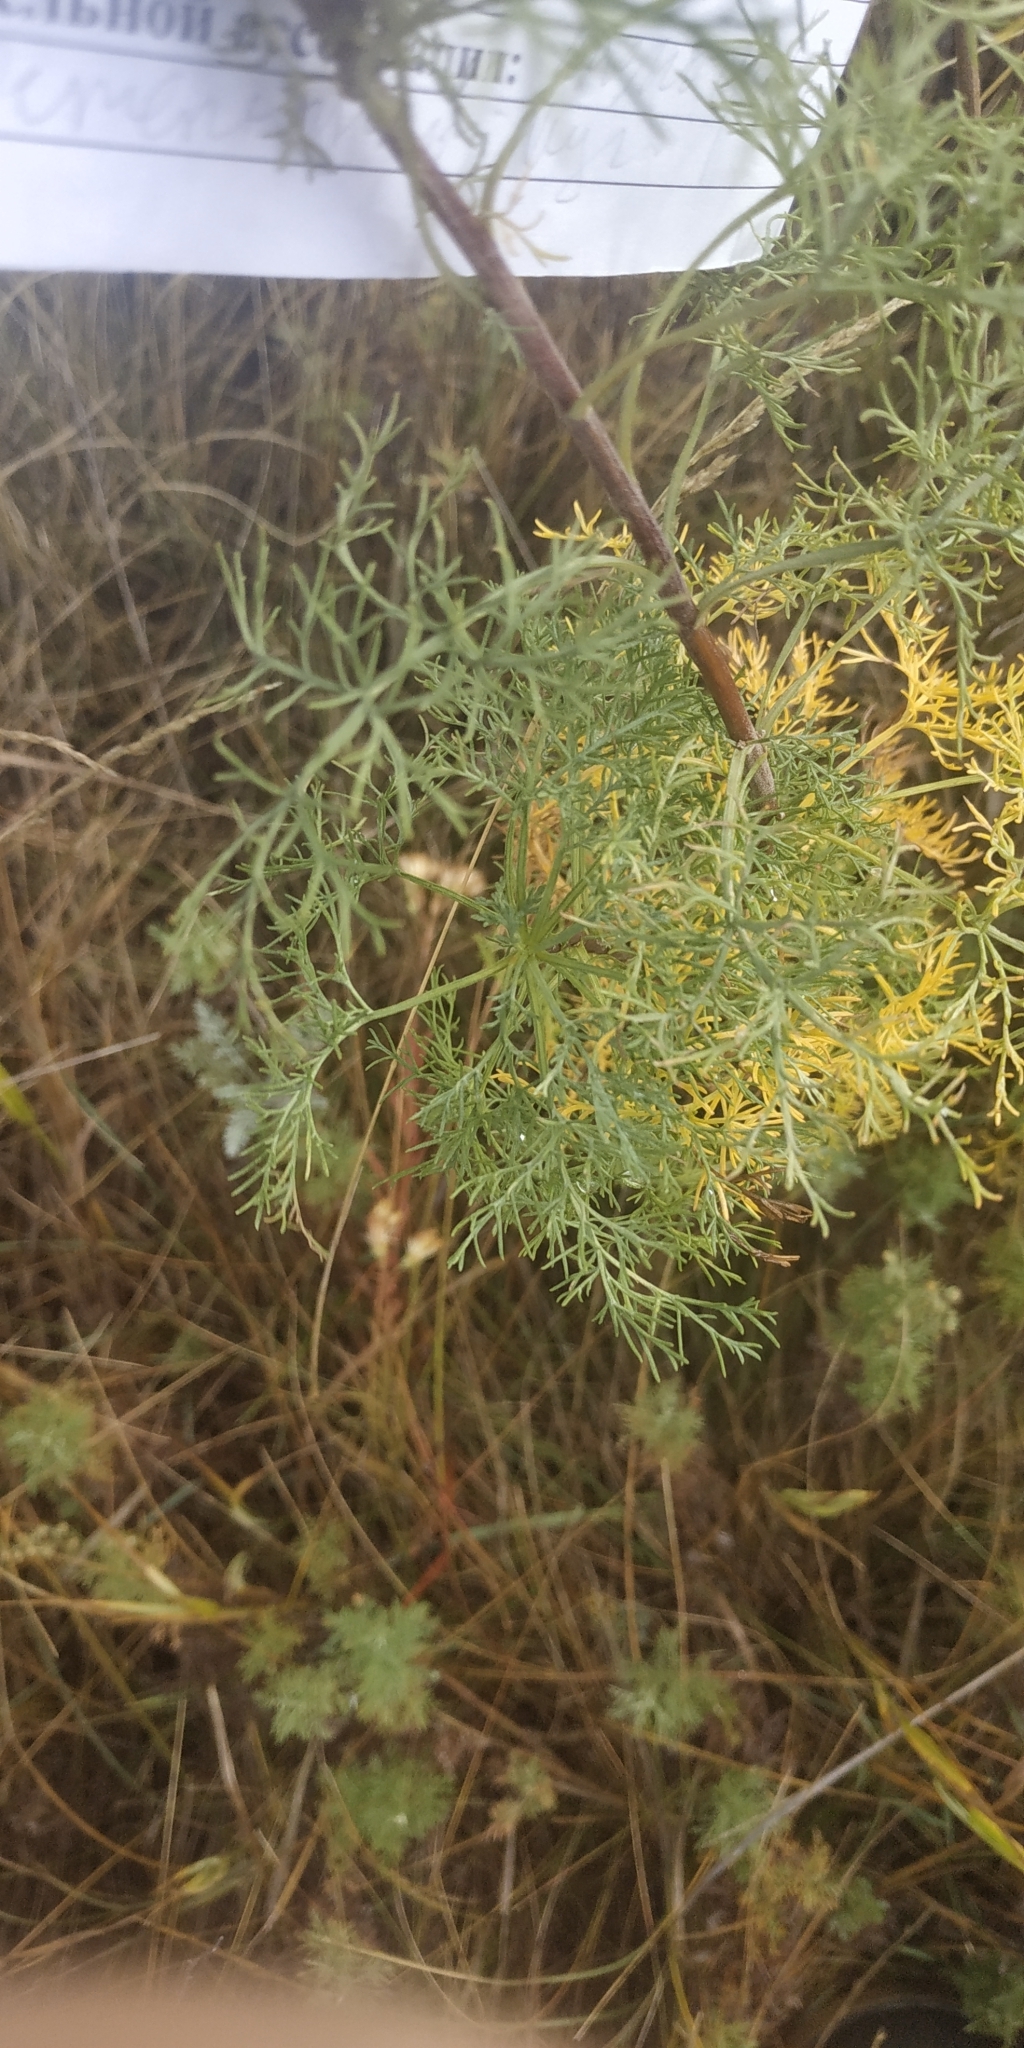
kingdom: Plantae
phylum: Tracheophyta
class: Magnoliopsida
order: Asterales
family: Asteraceae
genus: Artemisia
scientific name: Artemisia abrotanum
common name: Southernwood
